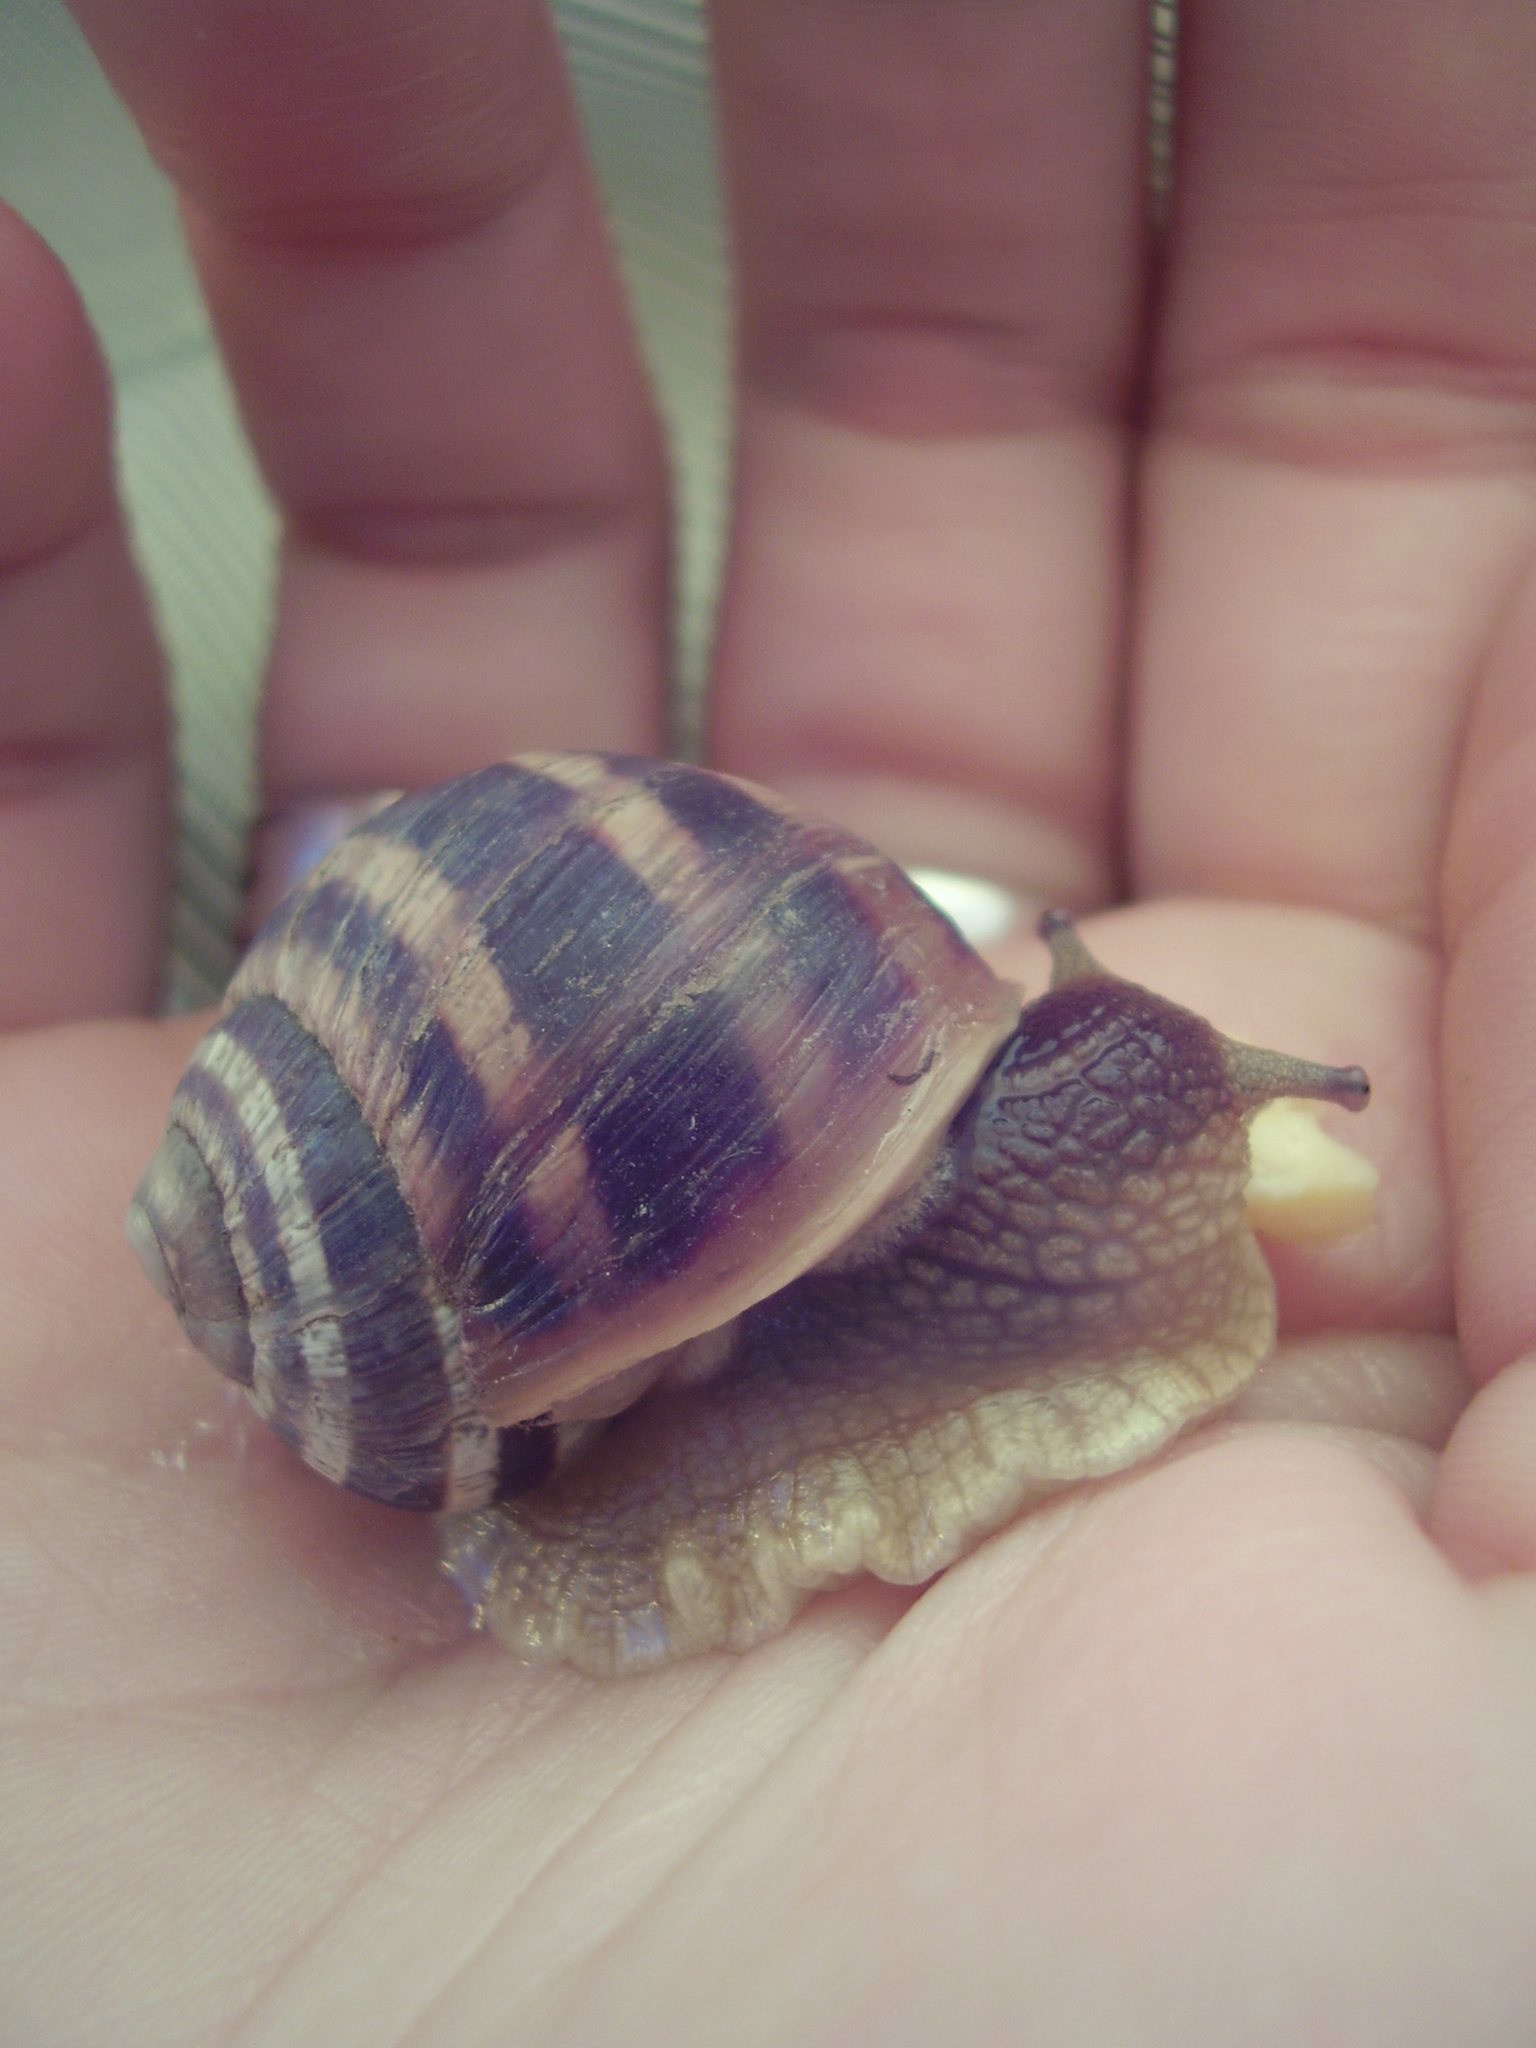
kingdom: Animalia
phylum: Mollusca
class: Gastropoda
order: Stylommatophora
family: Helicidae
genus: Helix
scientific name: Helix albescens
